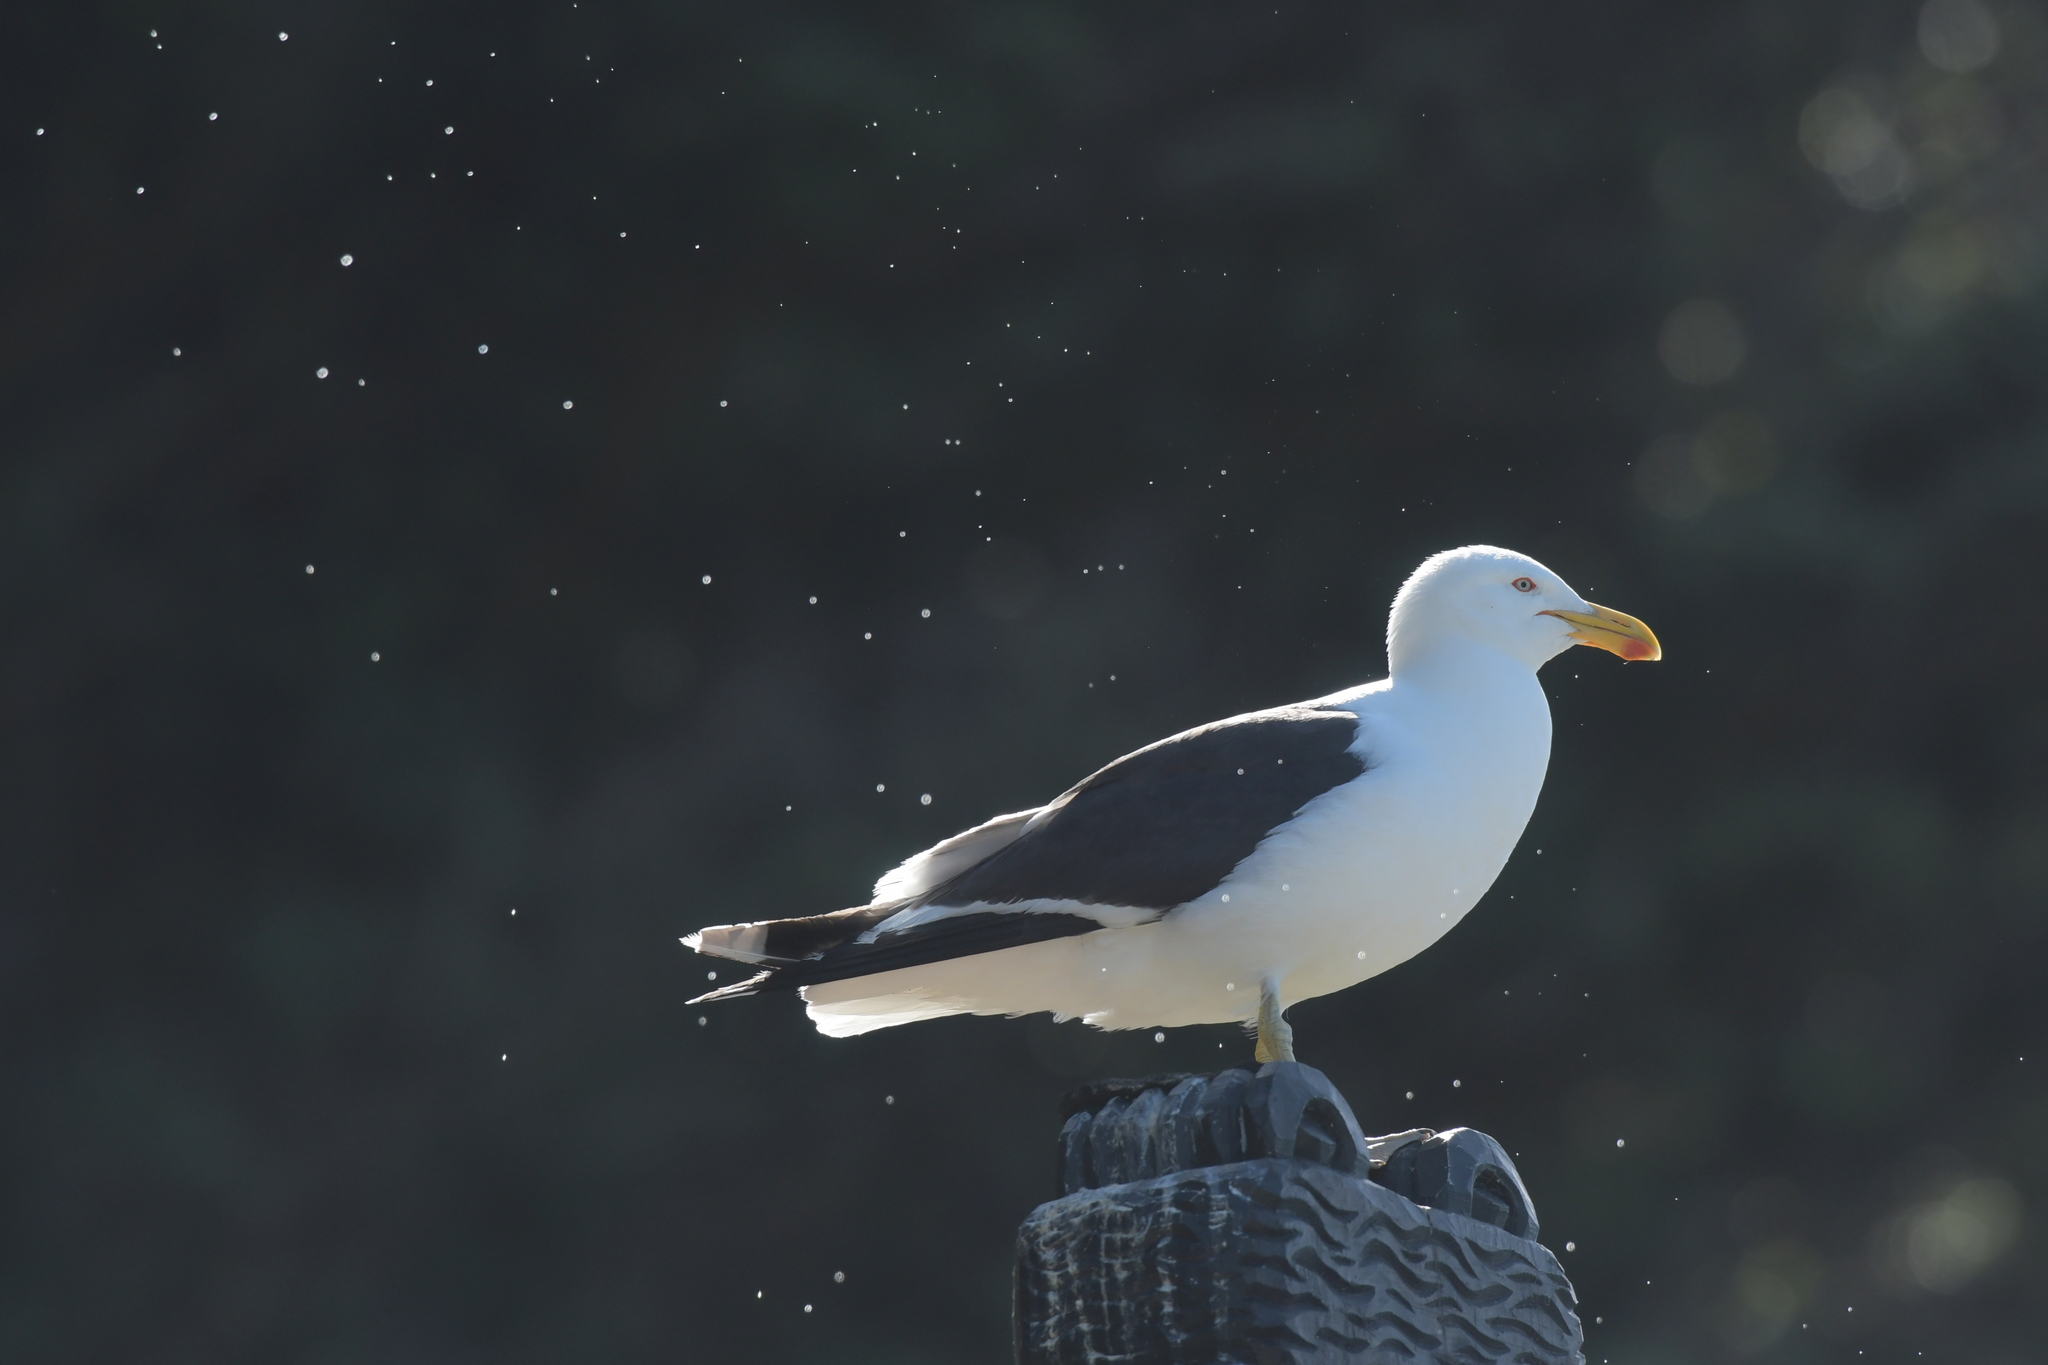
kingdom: Animalia
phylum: Chordata
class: Aves
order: Charadriiformes
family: Laridae
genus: Larus
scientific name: Larus dominicanus
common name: Kelp gull
